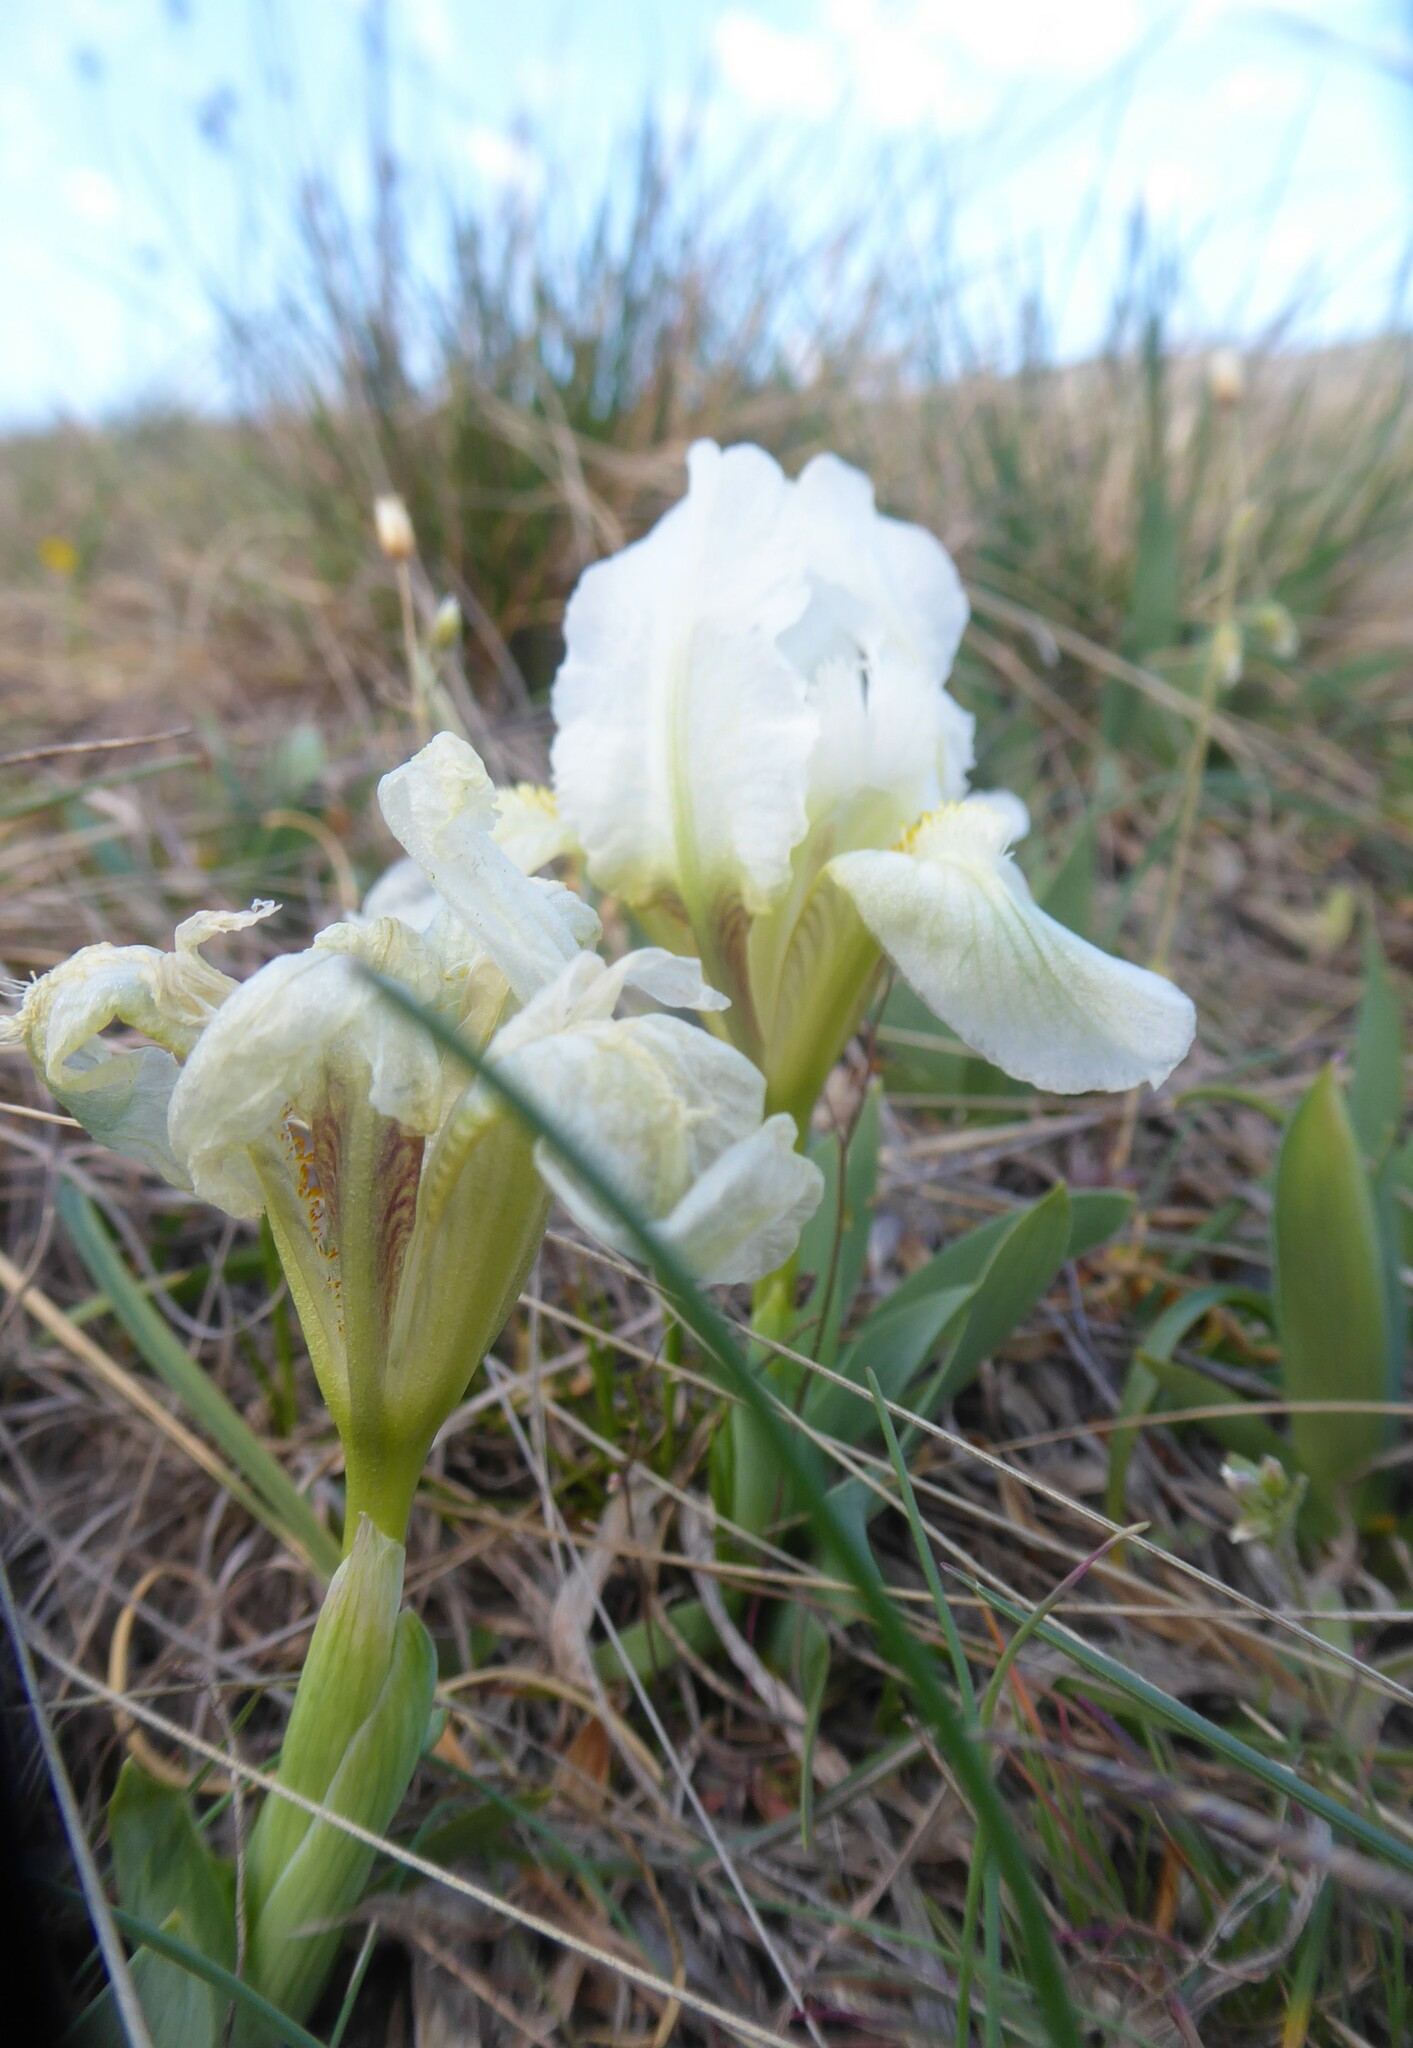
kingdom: Plantae
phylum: Tracheophyta
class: Liliopsida
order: Asparagales
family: Iridaceae
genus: Iris
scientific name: Iris pumila
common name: Dwarf iris
